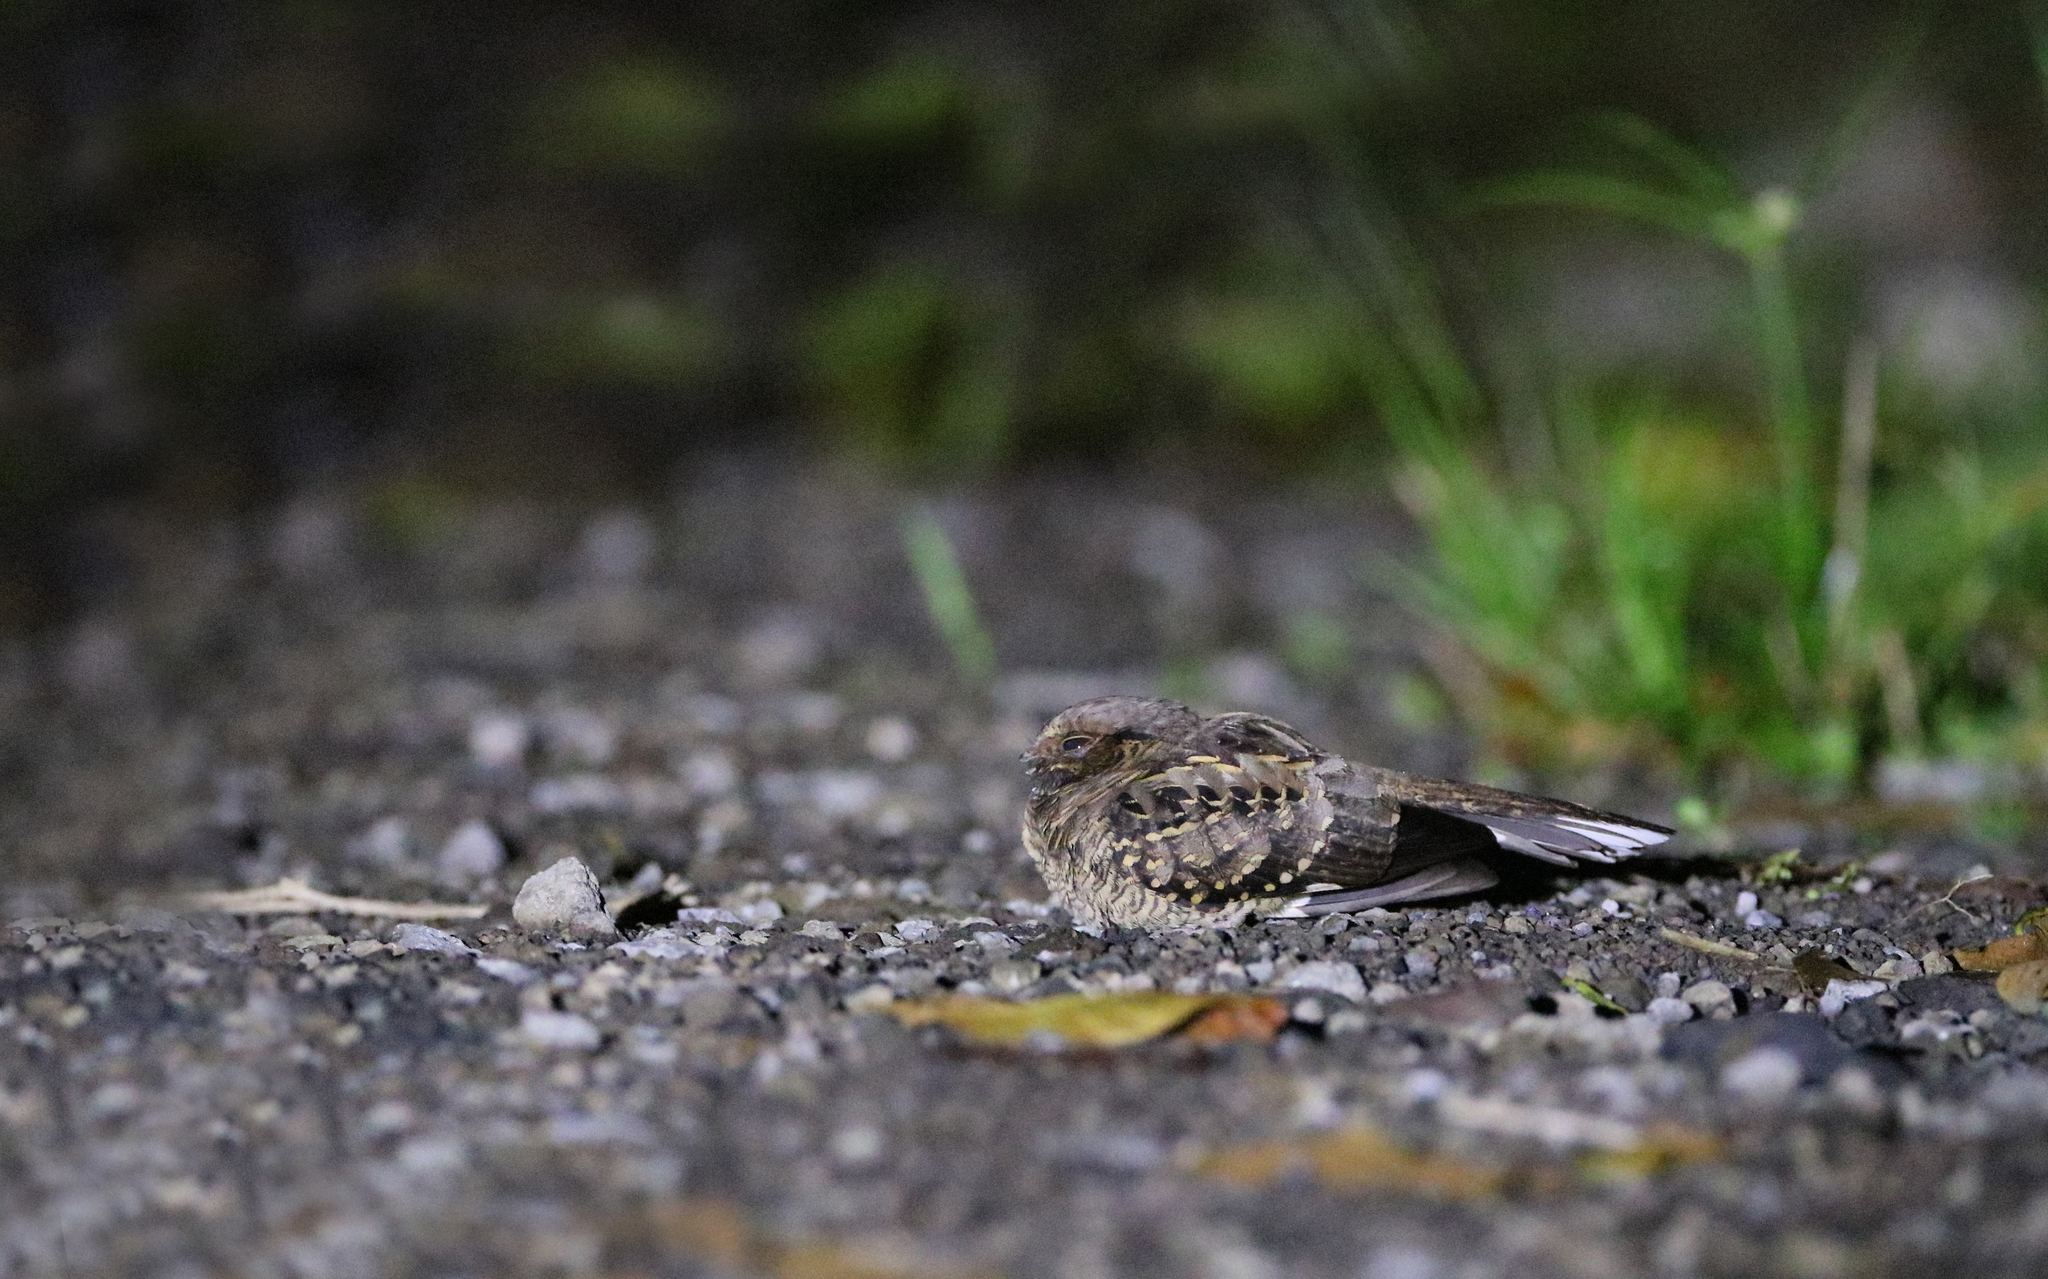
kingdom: Animalia
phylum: Chordata
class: Aves
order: Caprimulgiformes
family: Caprimulgidae
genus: Nyctidromus
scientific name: Nyctidromus albicollis
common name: Pauraque
